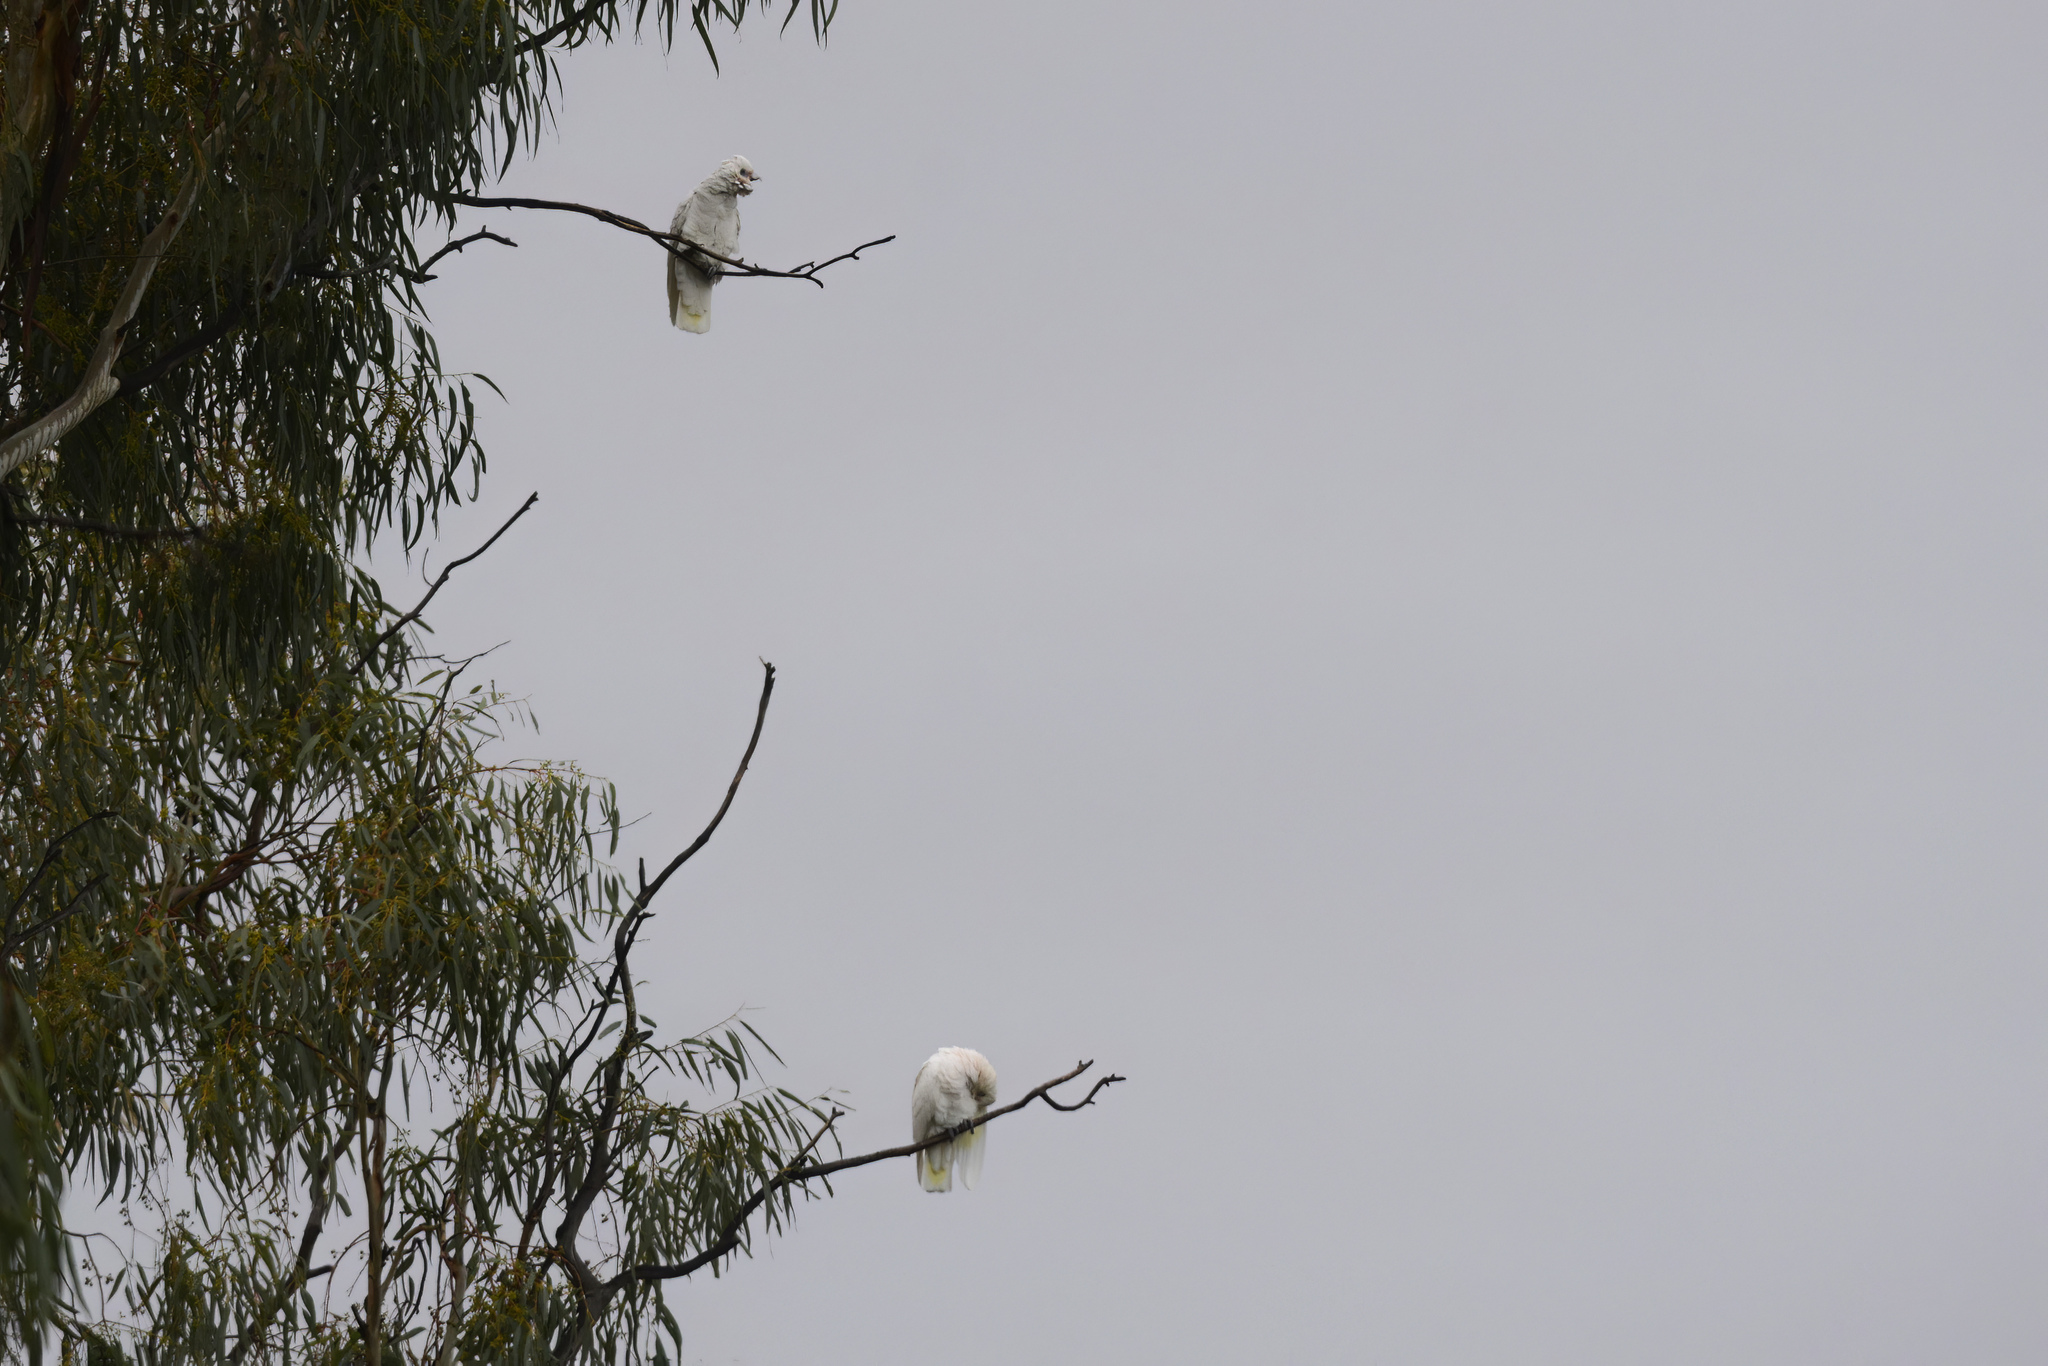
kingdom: Animalia
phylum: Chordata
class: Aves
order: Psittaciformes
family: Psittacidae
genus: Cacatua
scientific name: Cacatua sanguinea
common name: Little corella
